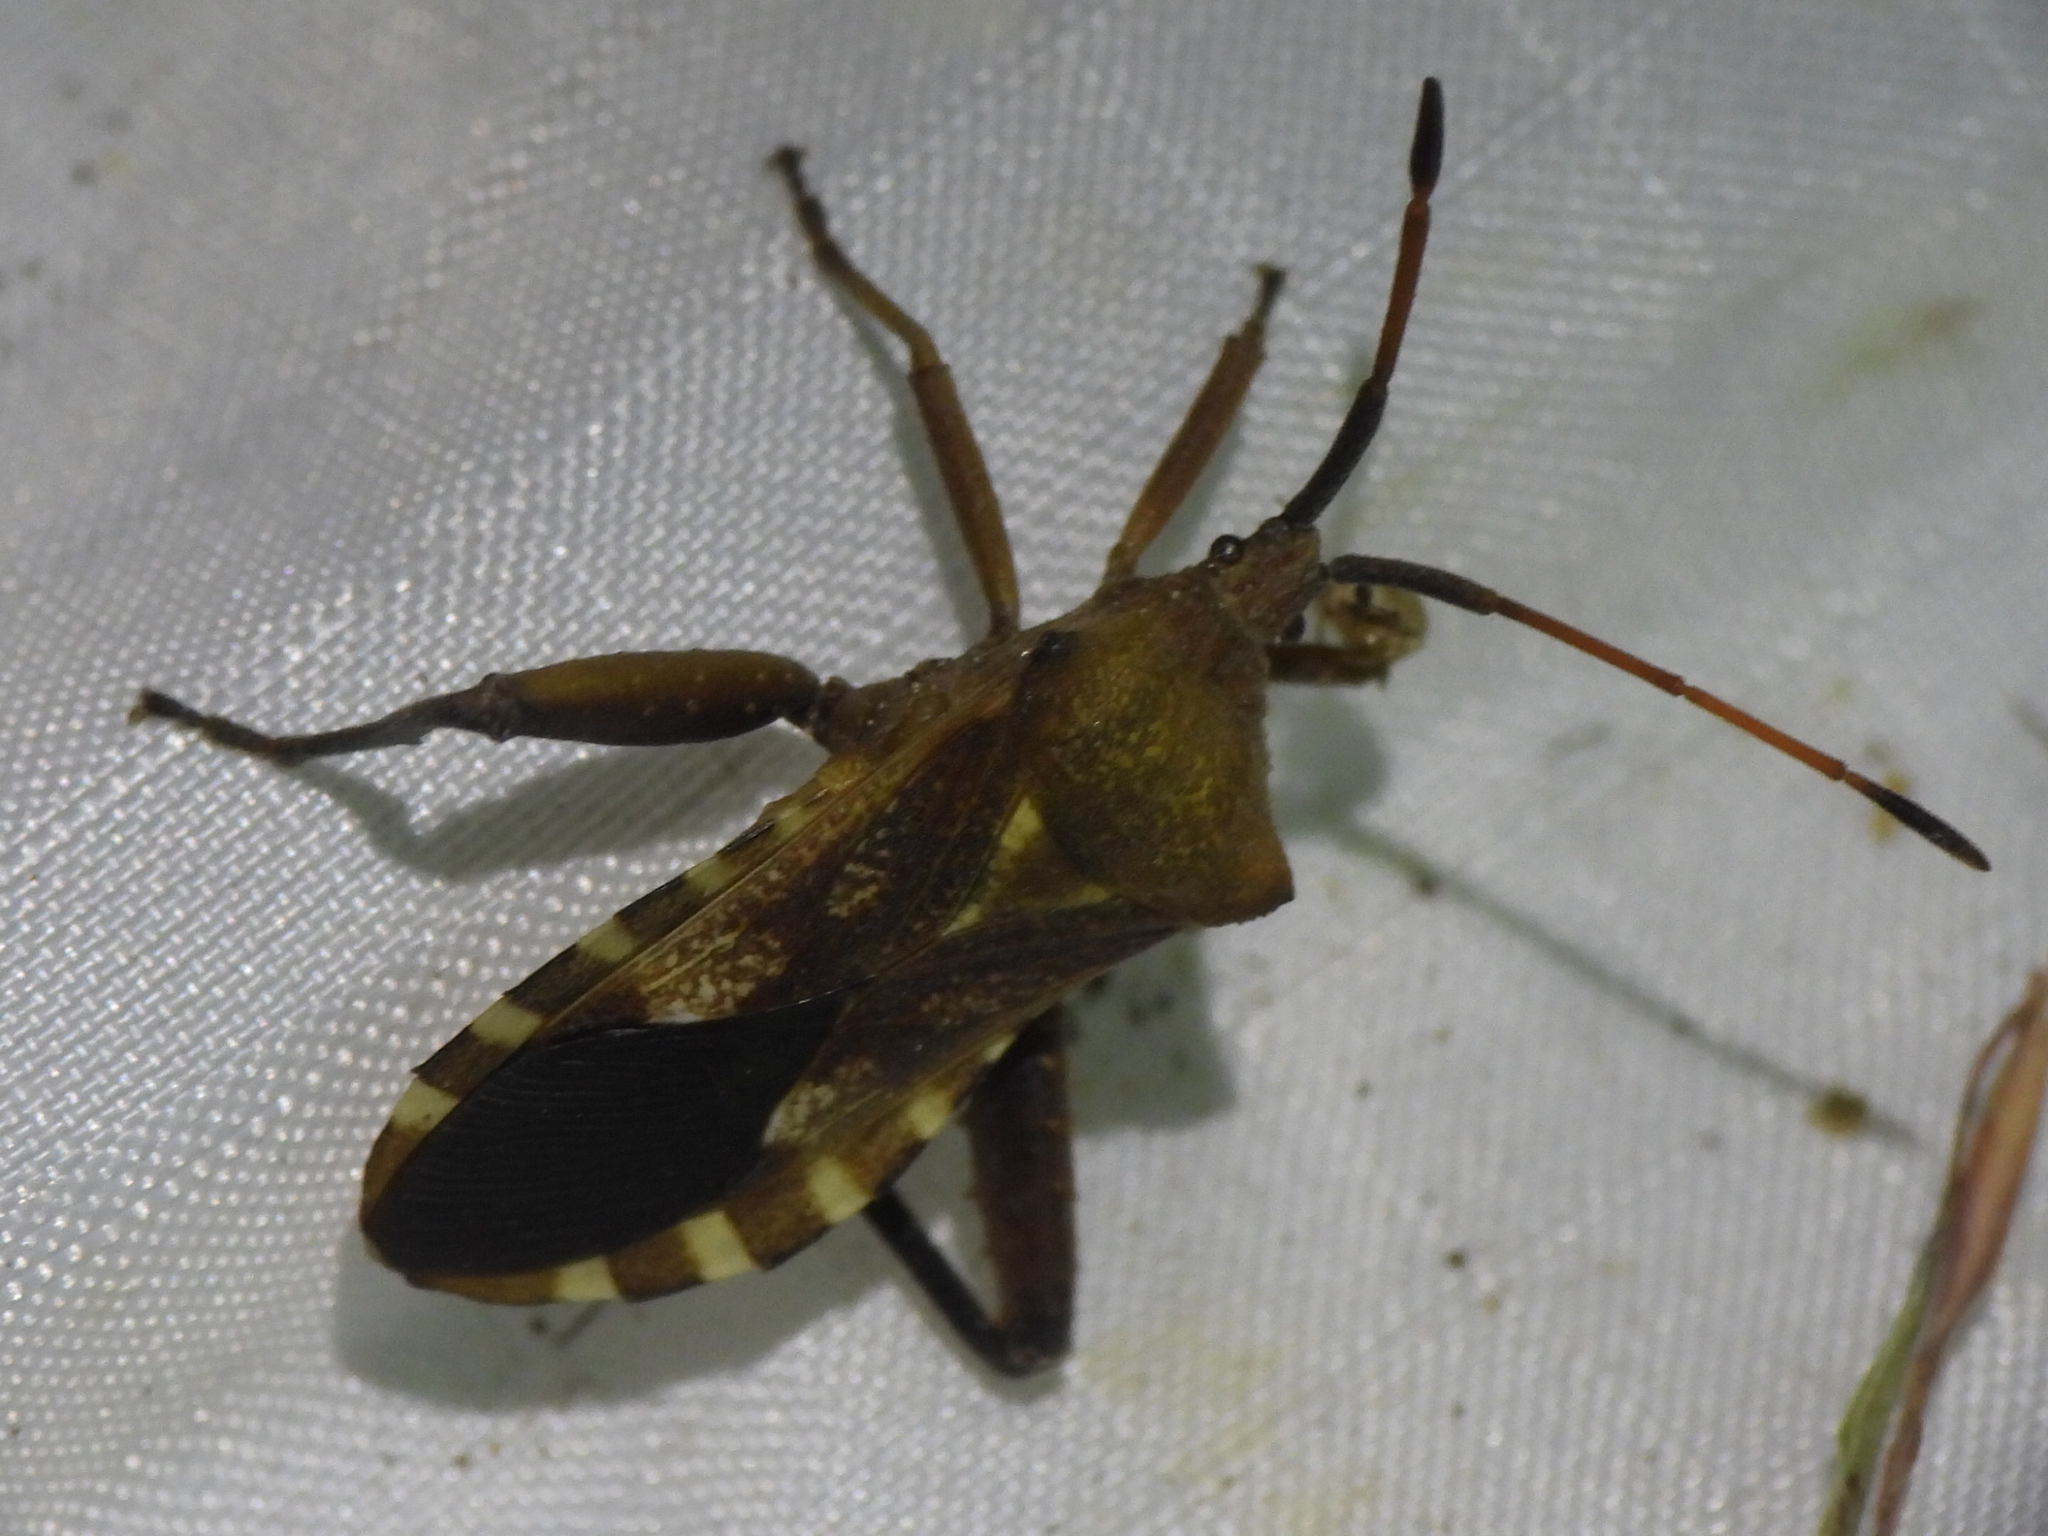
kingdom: Animalia
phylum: Arthropoda
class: Insecta
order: Hemiptera
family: Coreidae
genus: Mozena
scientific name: Mozena obtusa
